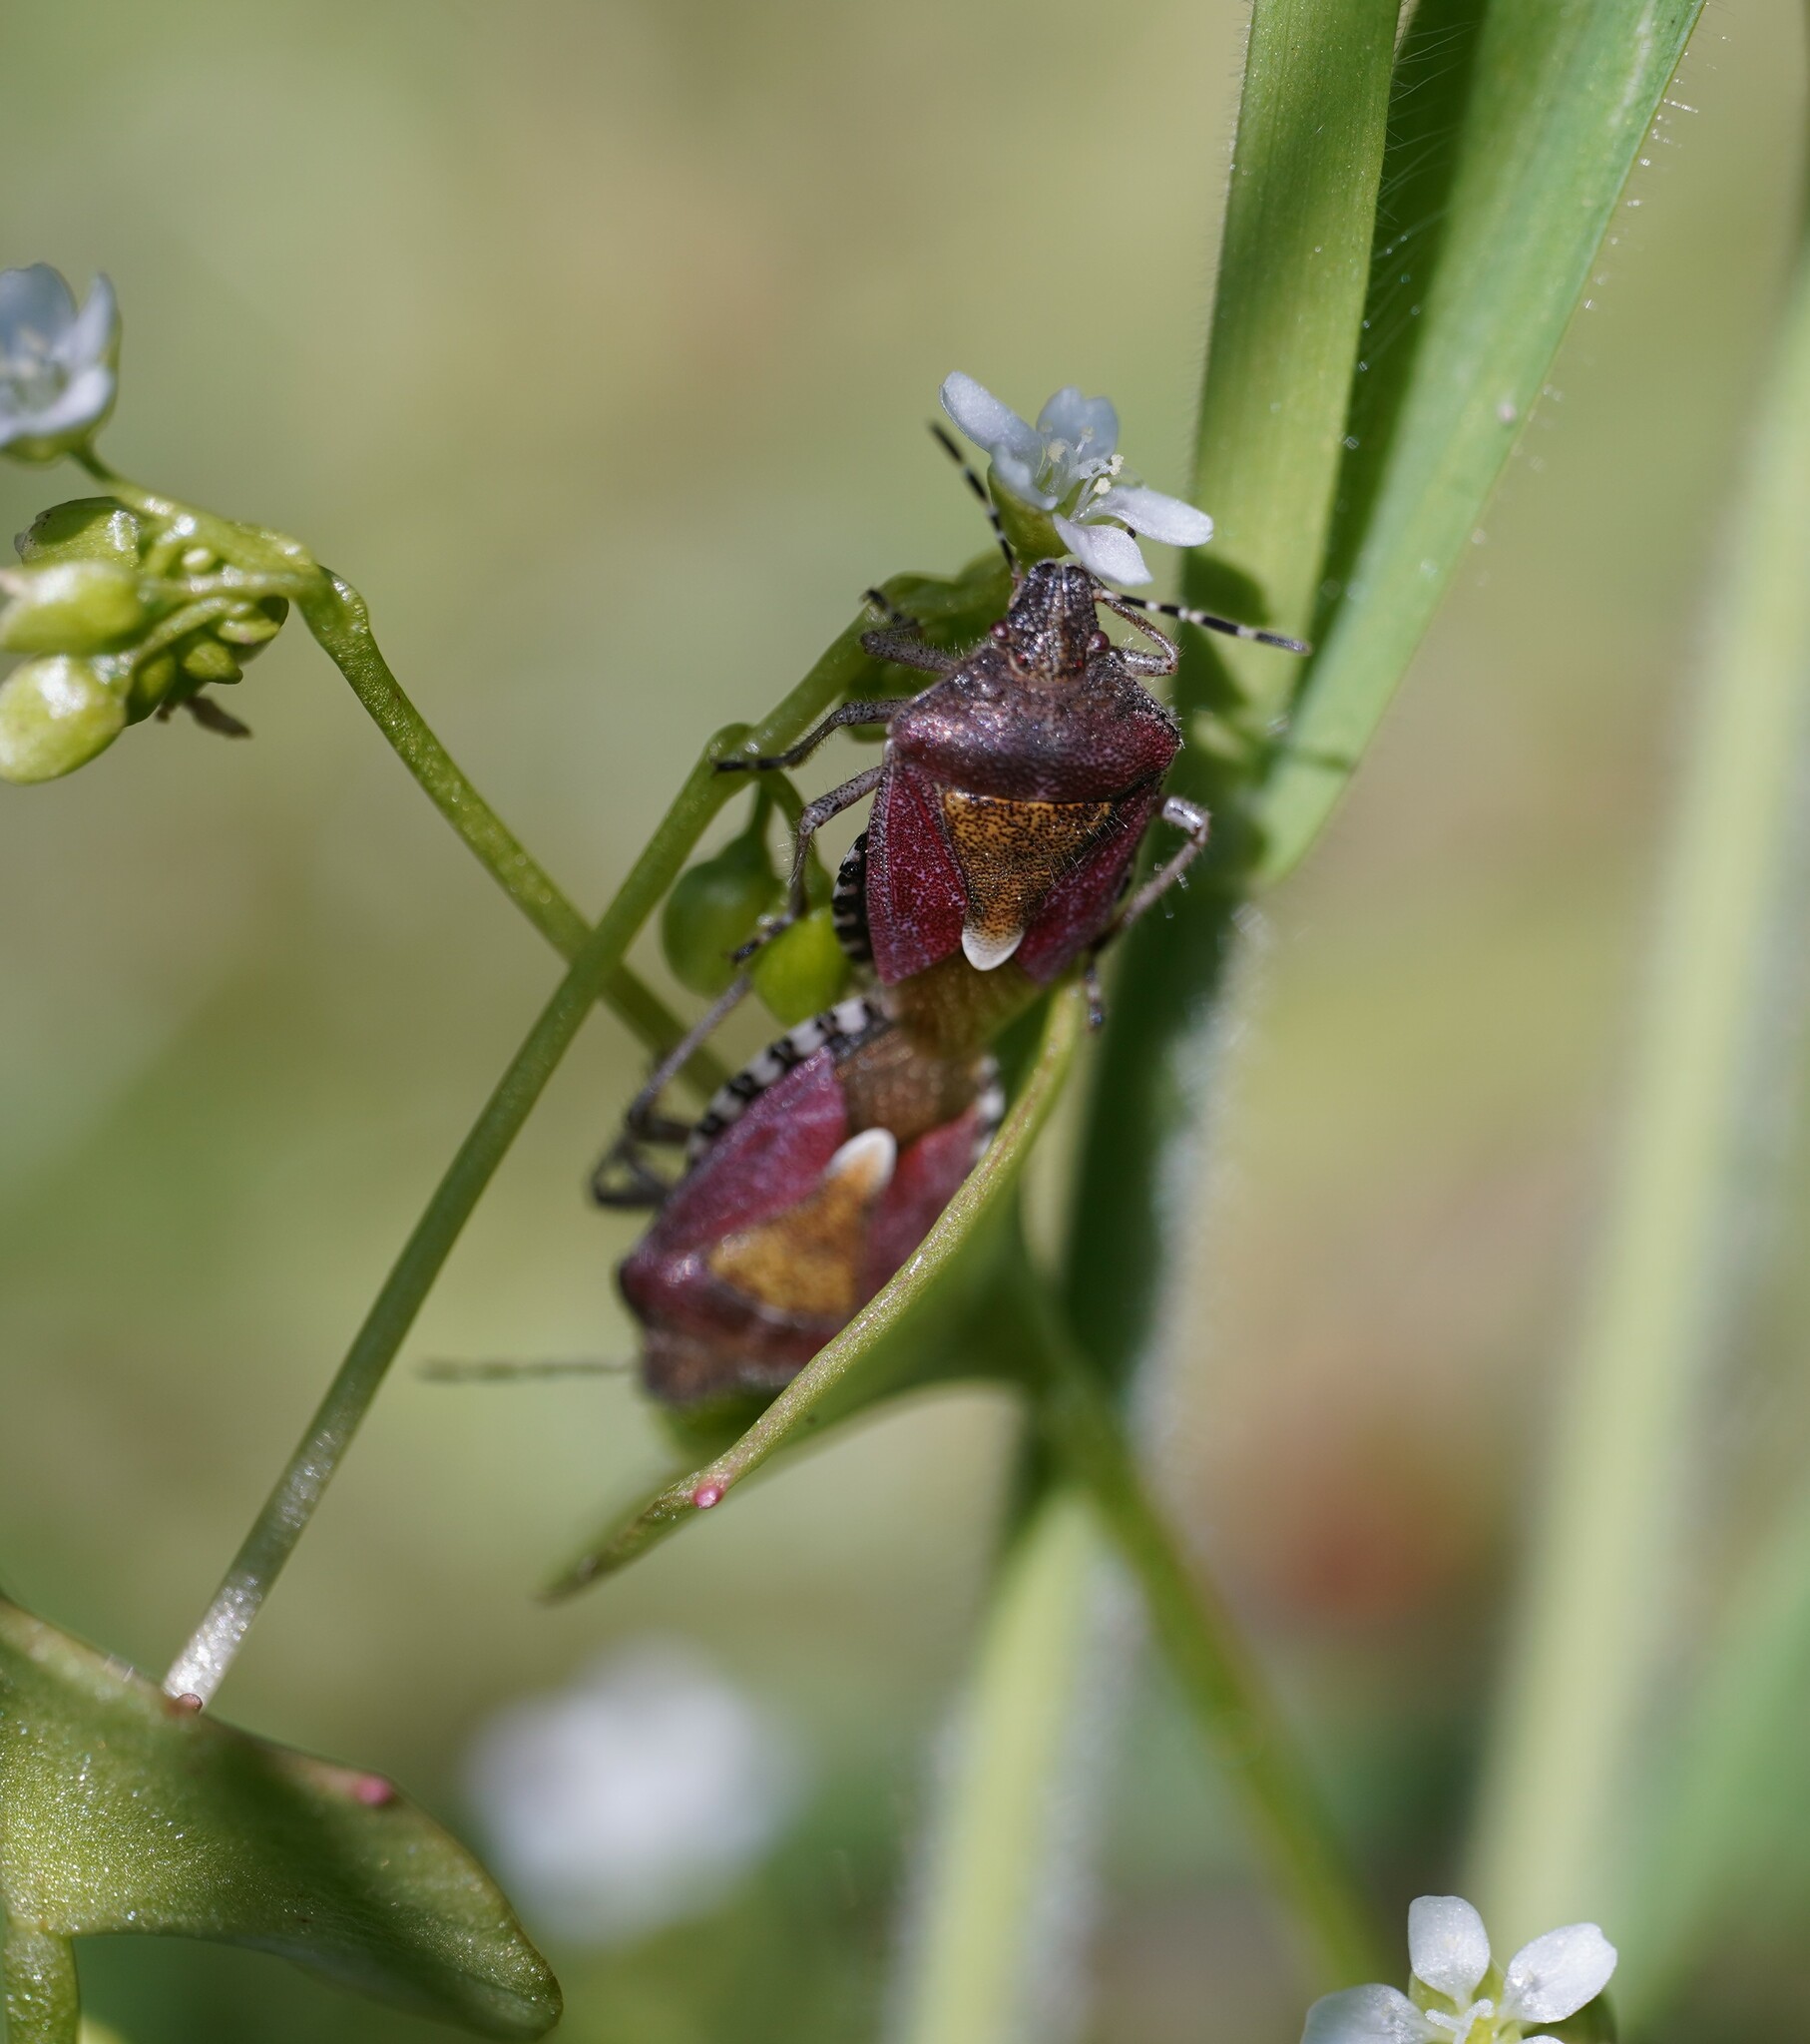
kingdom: Animalia
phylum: Arthropoda
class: Insecta
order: Hemiptera
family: Pentatomidae
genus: Dolycoris
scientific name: Dolycoris baccarum
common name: Sloe bug
